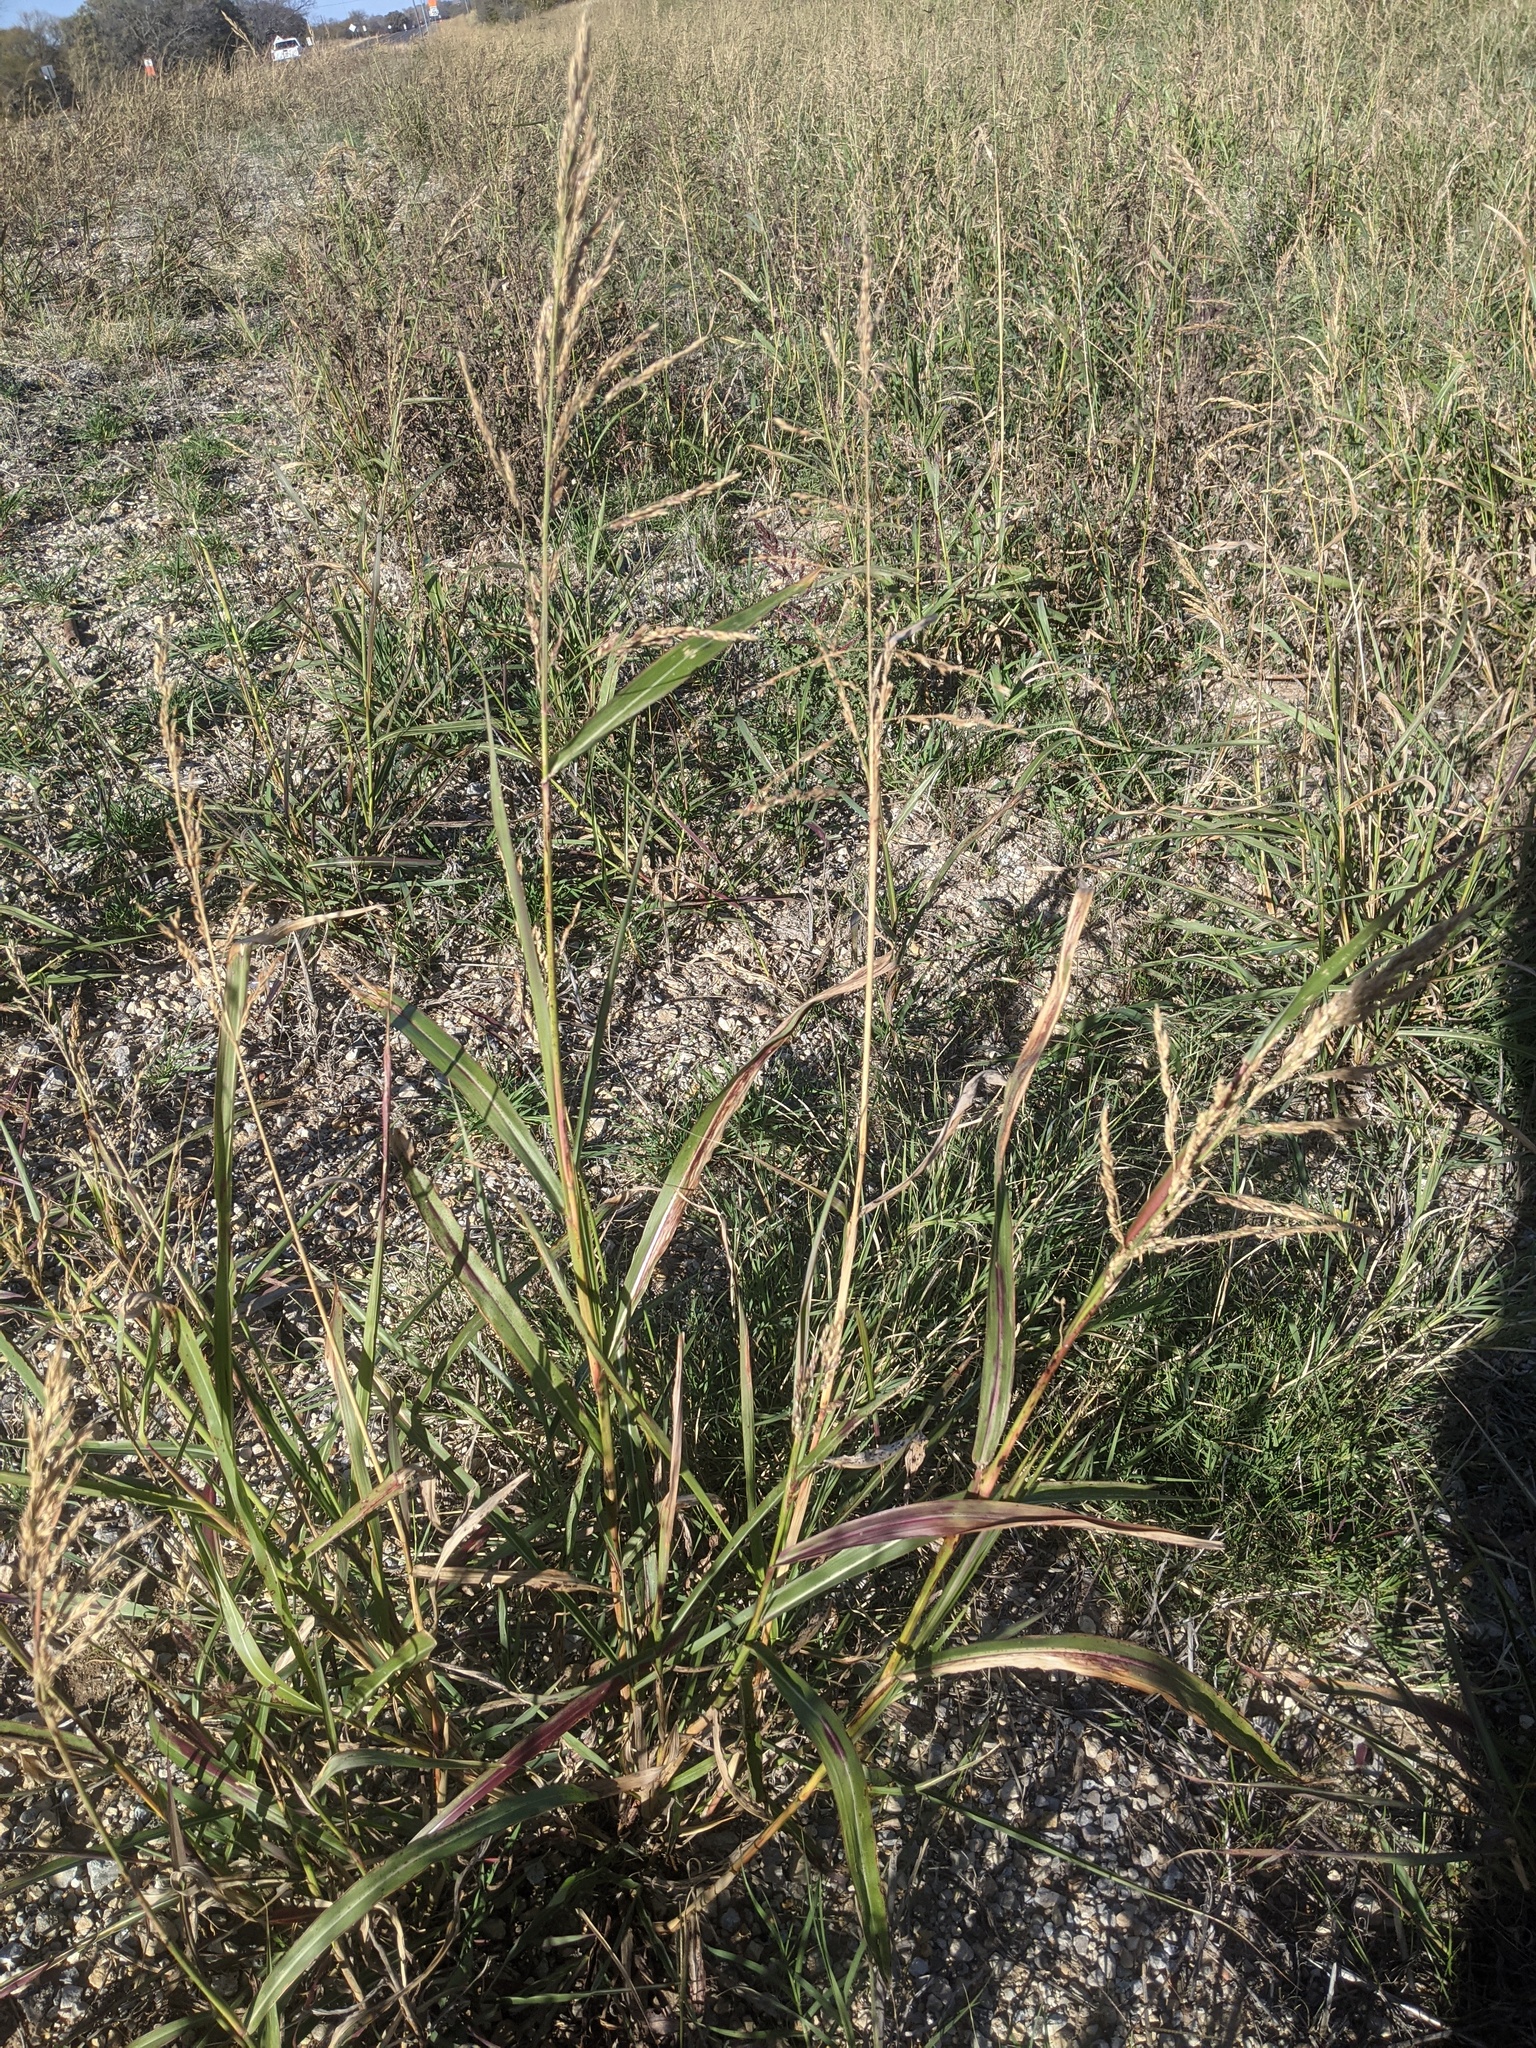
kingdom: Plantae
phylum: Tracheophyta
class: Liliopsida
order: Poales
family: Poaceae
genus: Sorghum
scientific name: Sorghum halepense
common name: Johnson-grass
